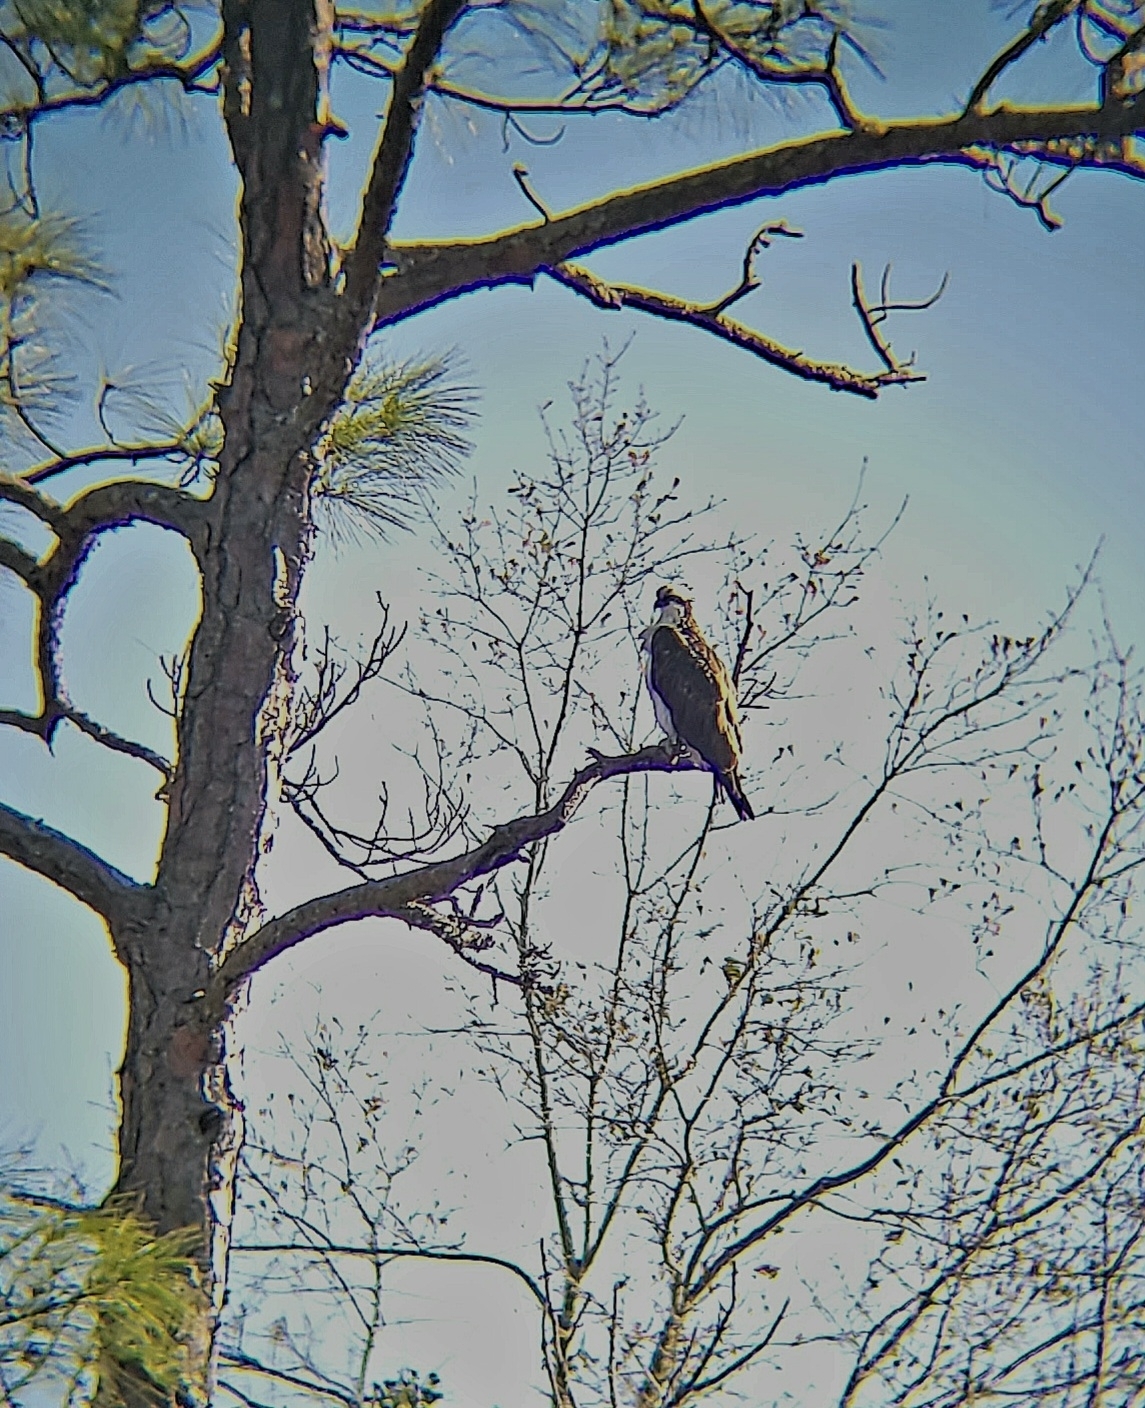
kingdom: Animalia
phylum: Chordata
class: Aves
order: Accipitriformes
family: Pandionidae
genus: Pandion
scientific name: Pandion haliaetus
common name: Osprey
